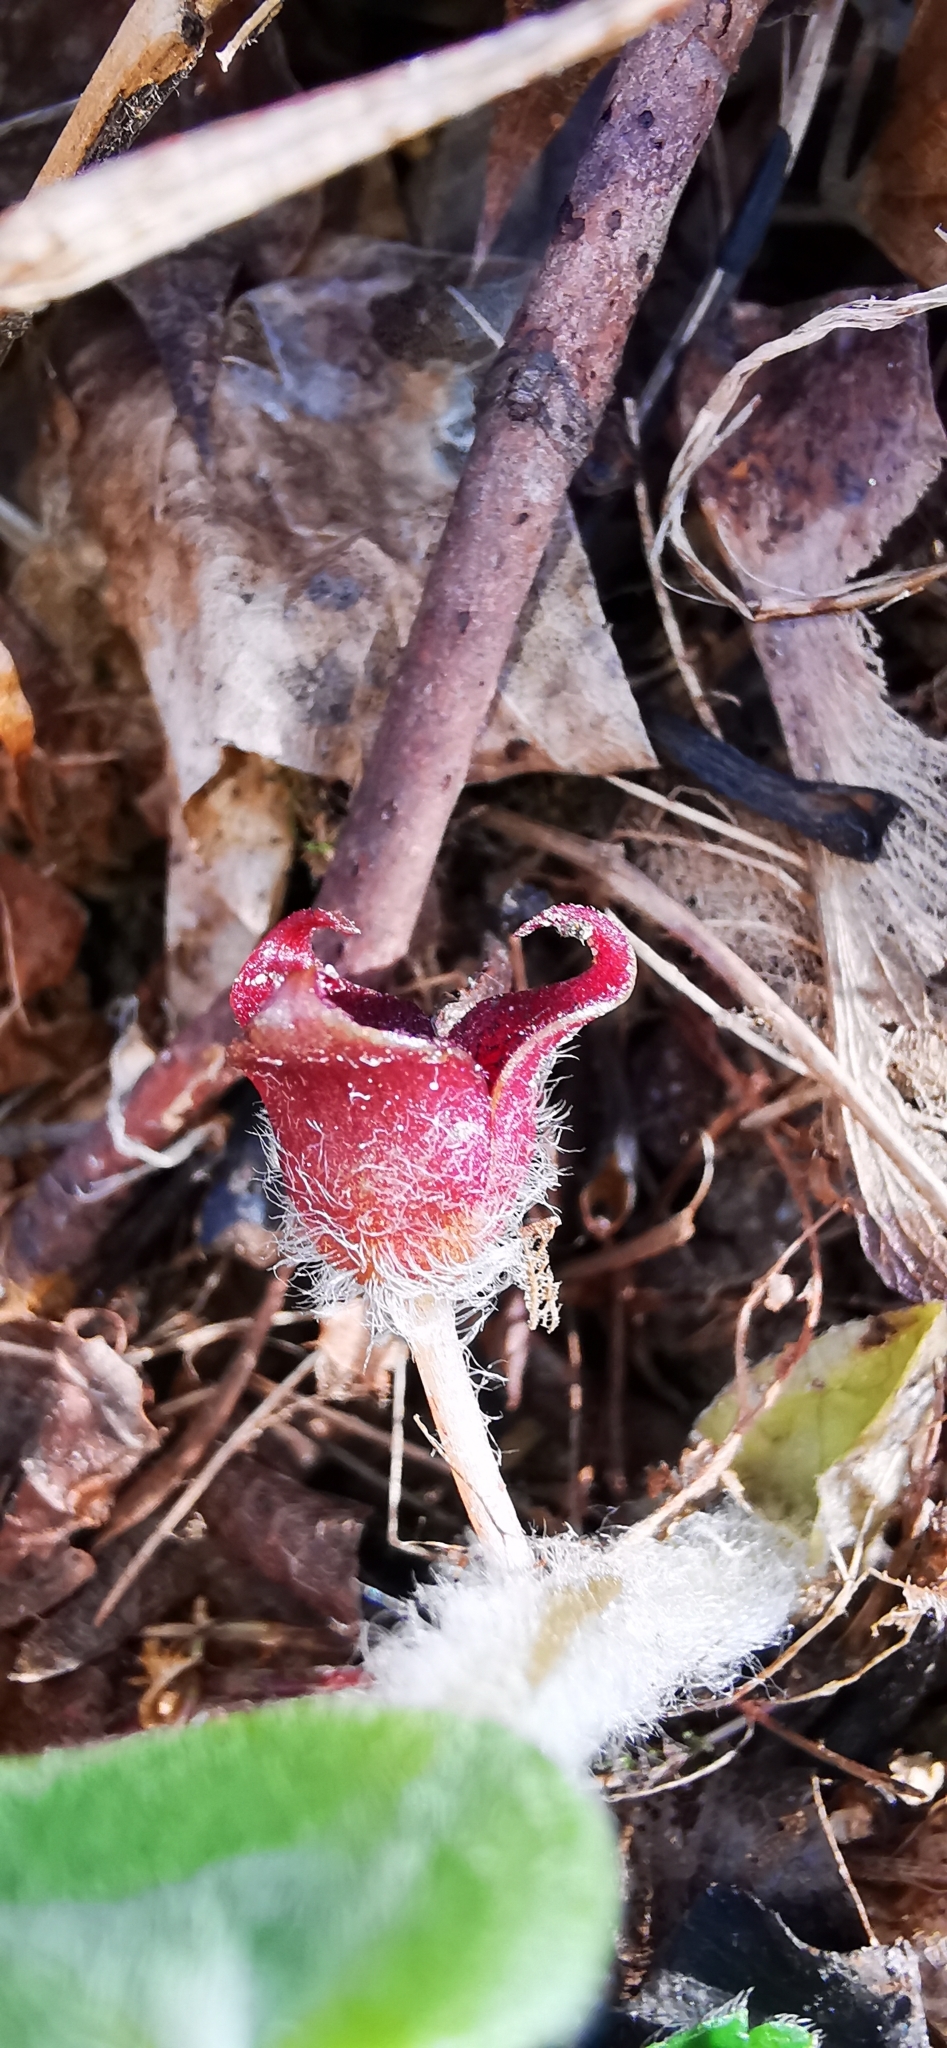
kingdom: Plantae
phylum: Tracheophyta
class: Magnoliopsida
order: Piperales
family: Aristolochiaceae
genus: Asarum
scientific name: Asarum europaeum
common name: Asarabacca
